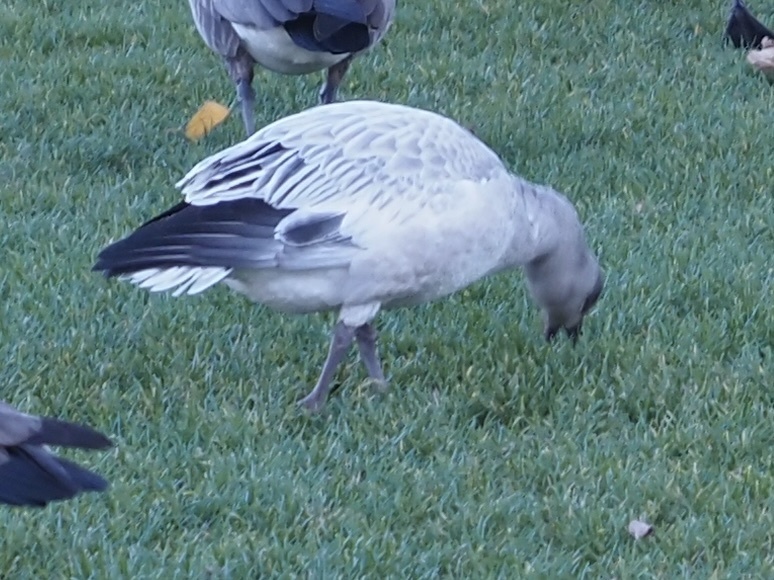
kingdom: Animalia
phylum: Chordata
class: Aves
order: Anseriformes
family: Anatidae
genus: Anser
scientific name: Anser caerulescens
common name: Snow goose
